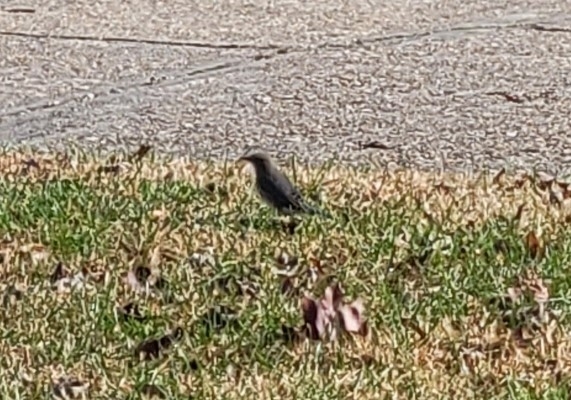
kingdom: Animalia
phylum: Chordata
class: Aves
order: Passeriformes
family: Turdidae
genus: Sialia
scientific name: Sialia sialis
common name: Eastern bluebird
